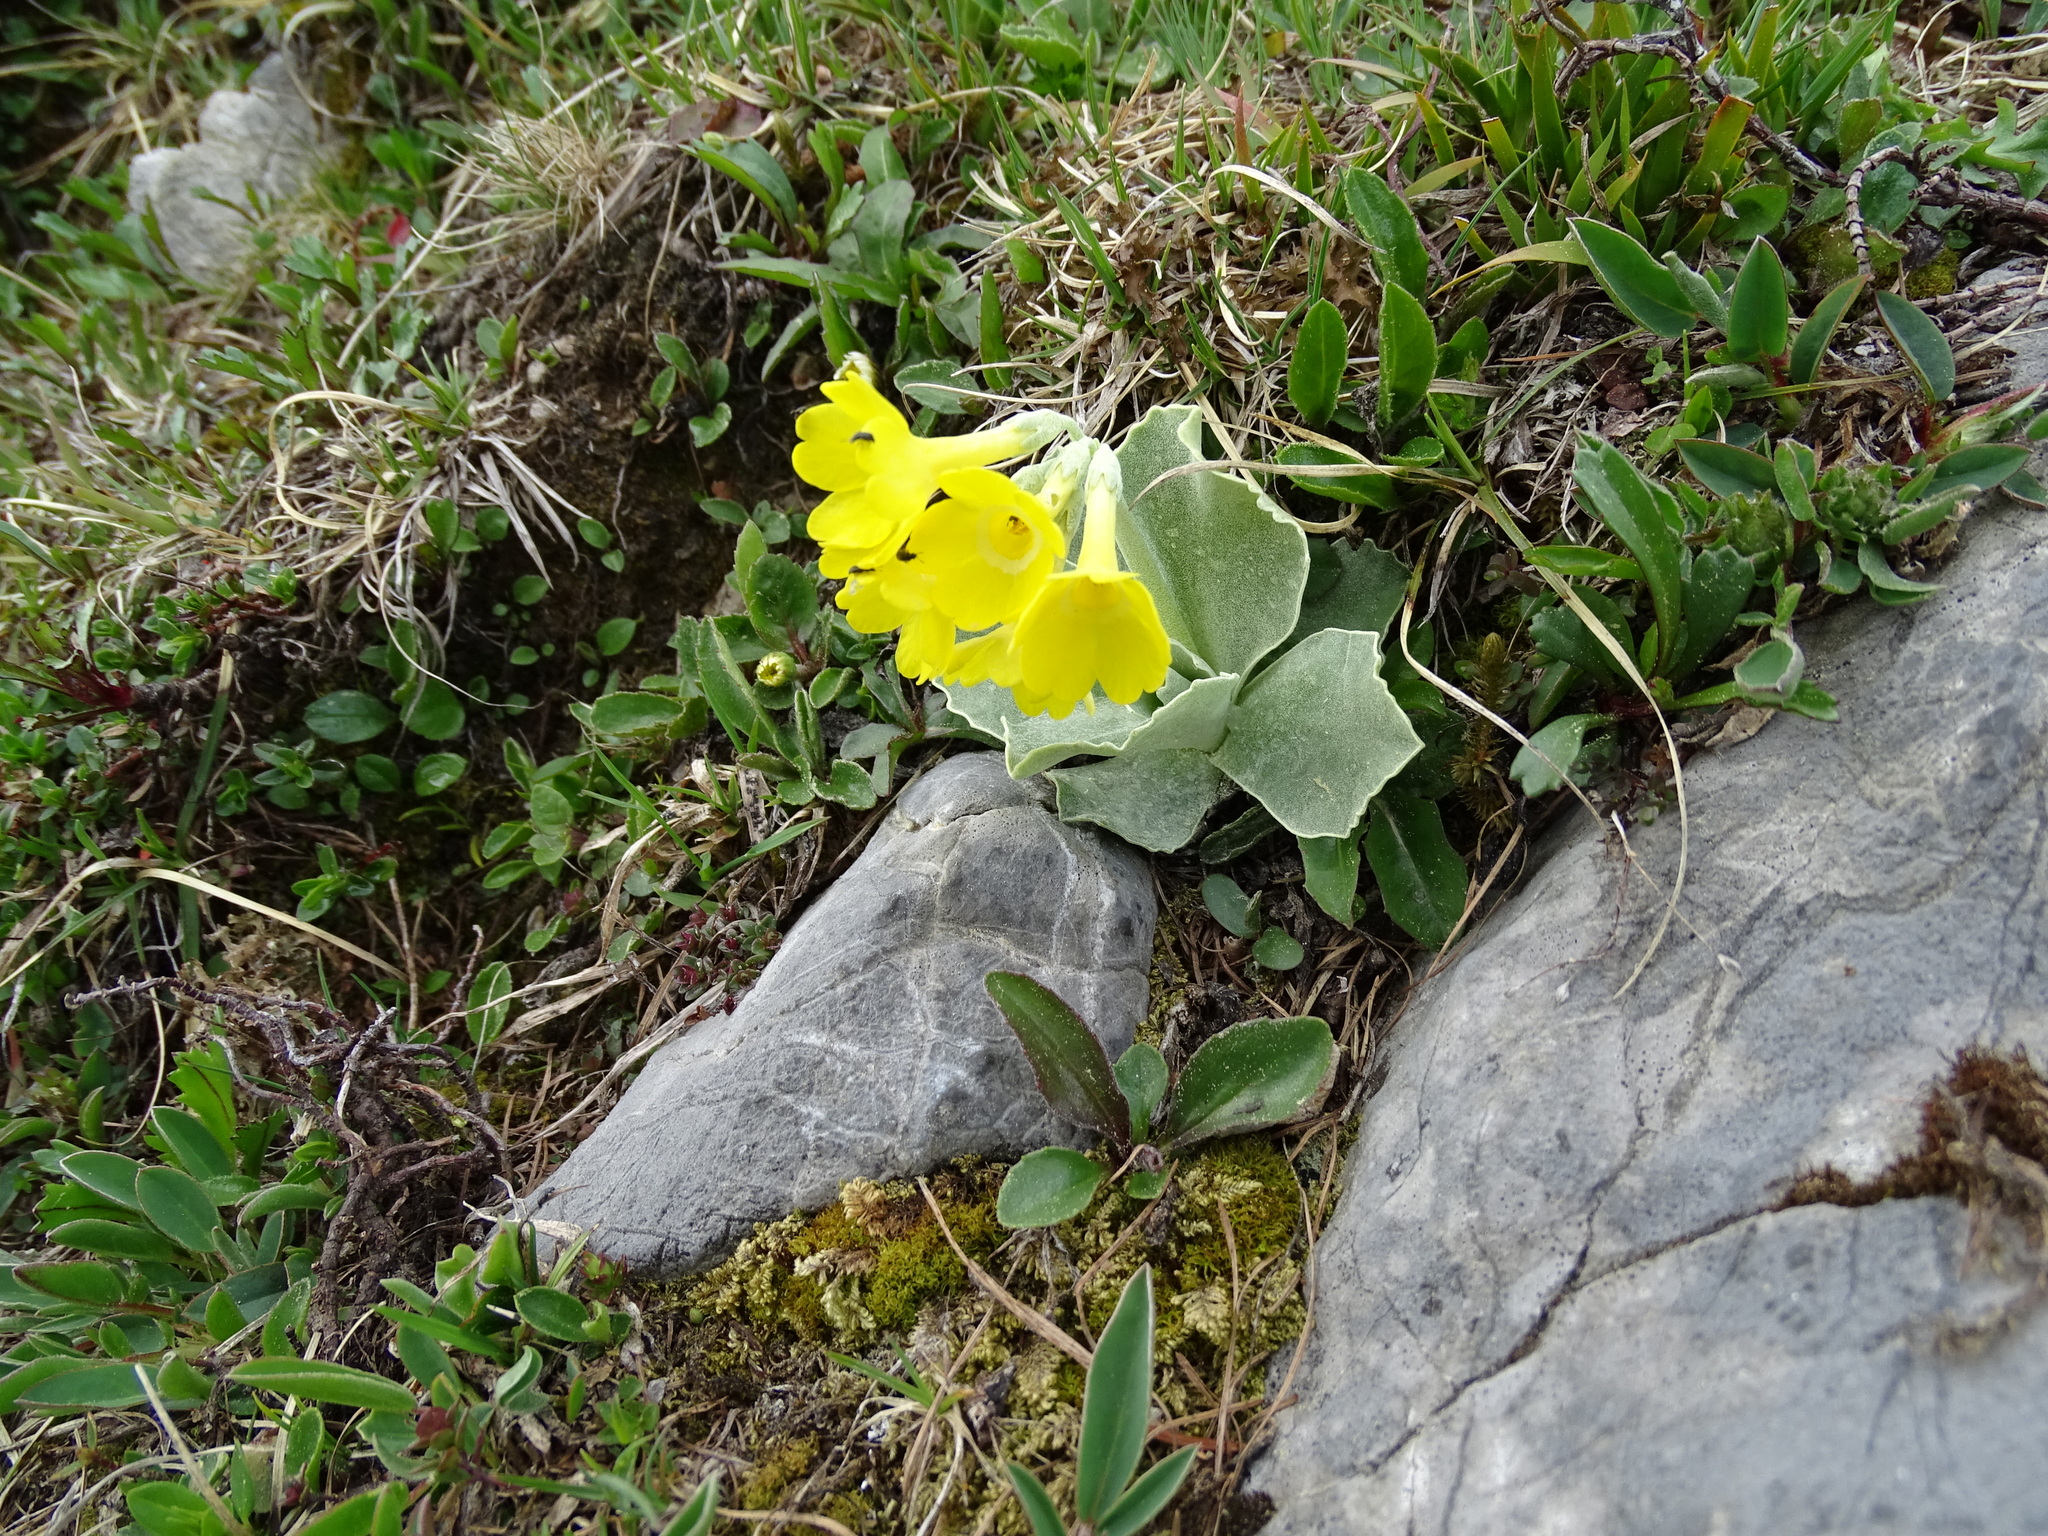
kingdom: Plantae
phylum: Tracheophyta
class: Magnoliopsida
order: Ericales
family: Primulaceae
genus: Primula
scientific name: Primula auricula
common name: Auricula
